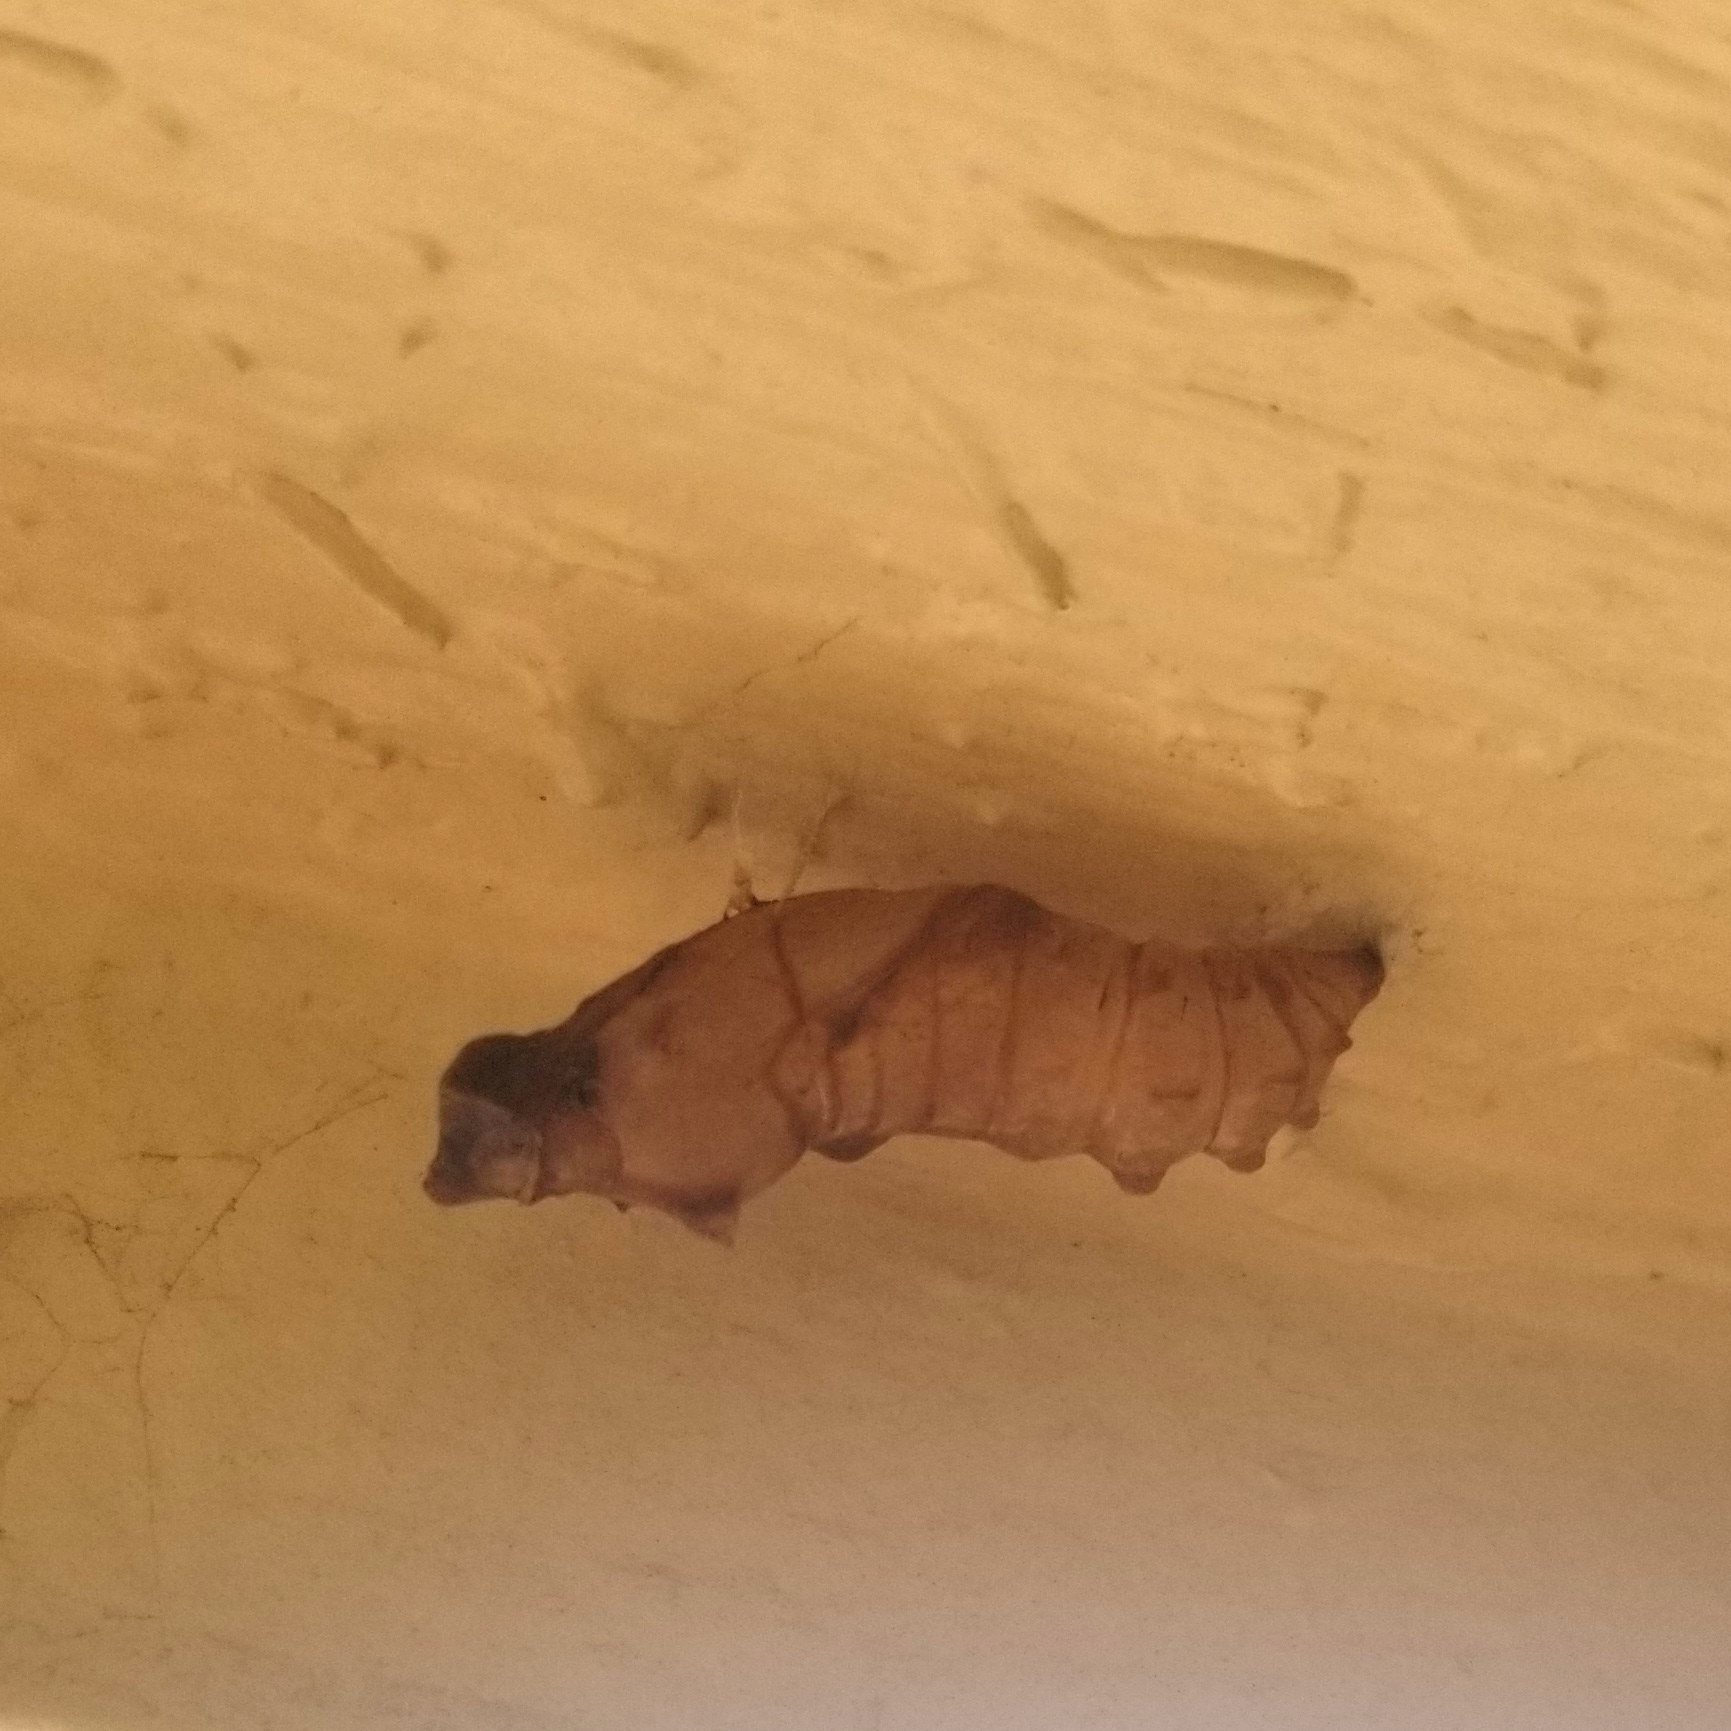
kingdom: Animalia
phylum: Arthropoda
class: Insecta
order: Lepidoptera
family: Papilionidae
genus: Battus
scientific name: Battus philenor
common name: Pipevine swallowtail
